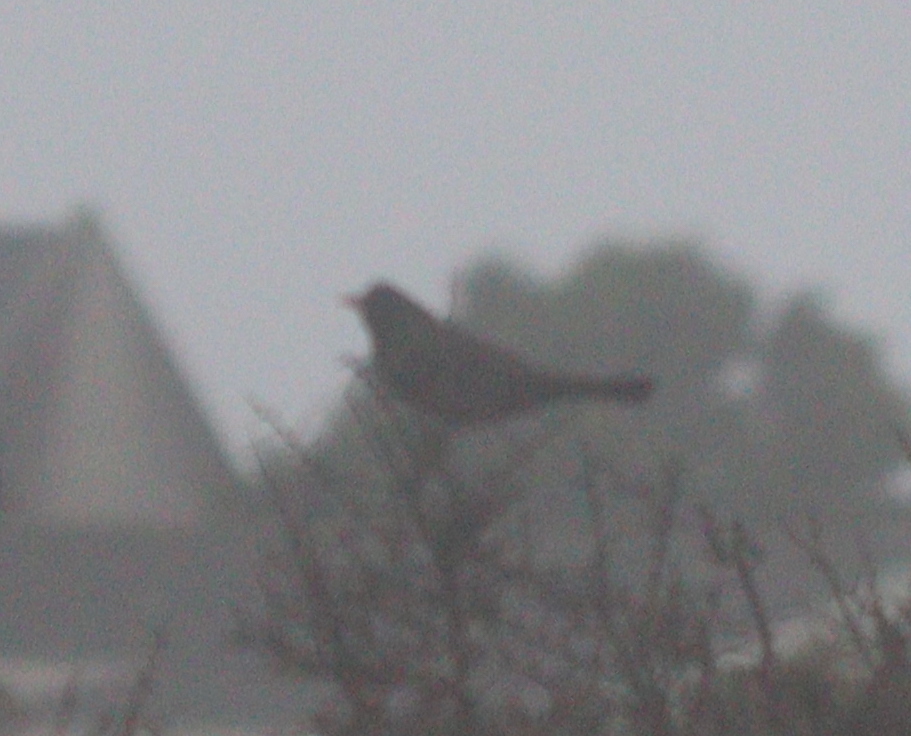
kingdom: Animalia
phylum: Chordata
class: Aves
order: Passeriformes
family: Turdidae
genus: Turdus
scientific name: Turdus merula
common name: Common blackbird
